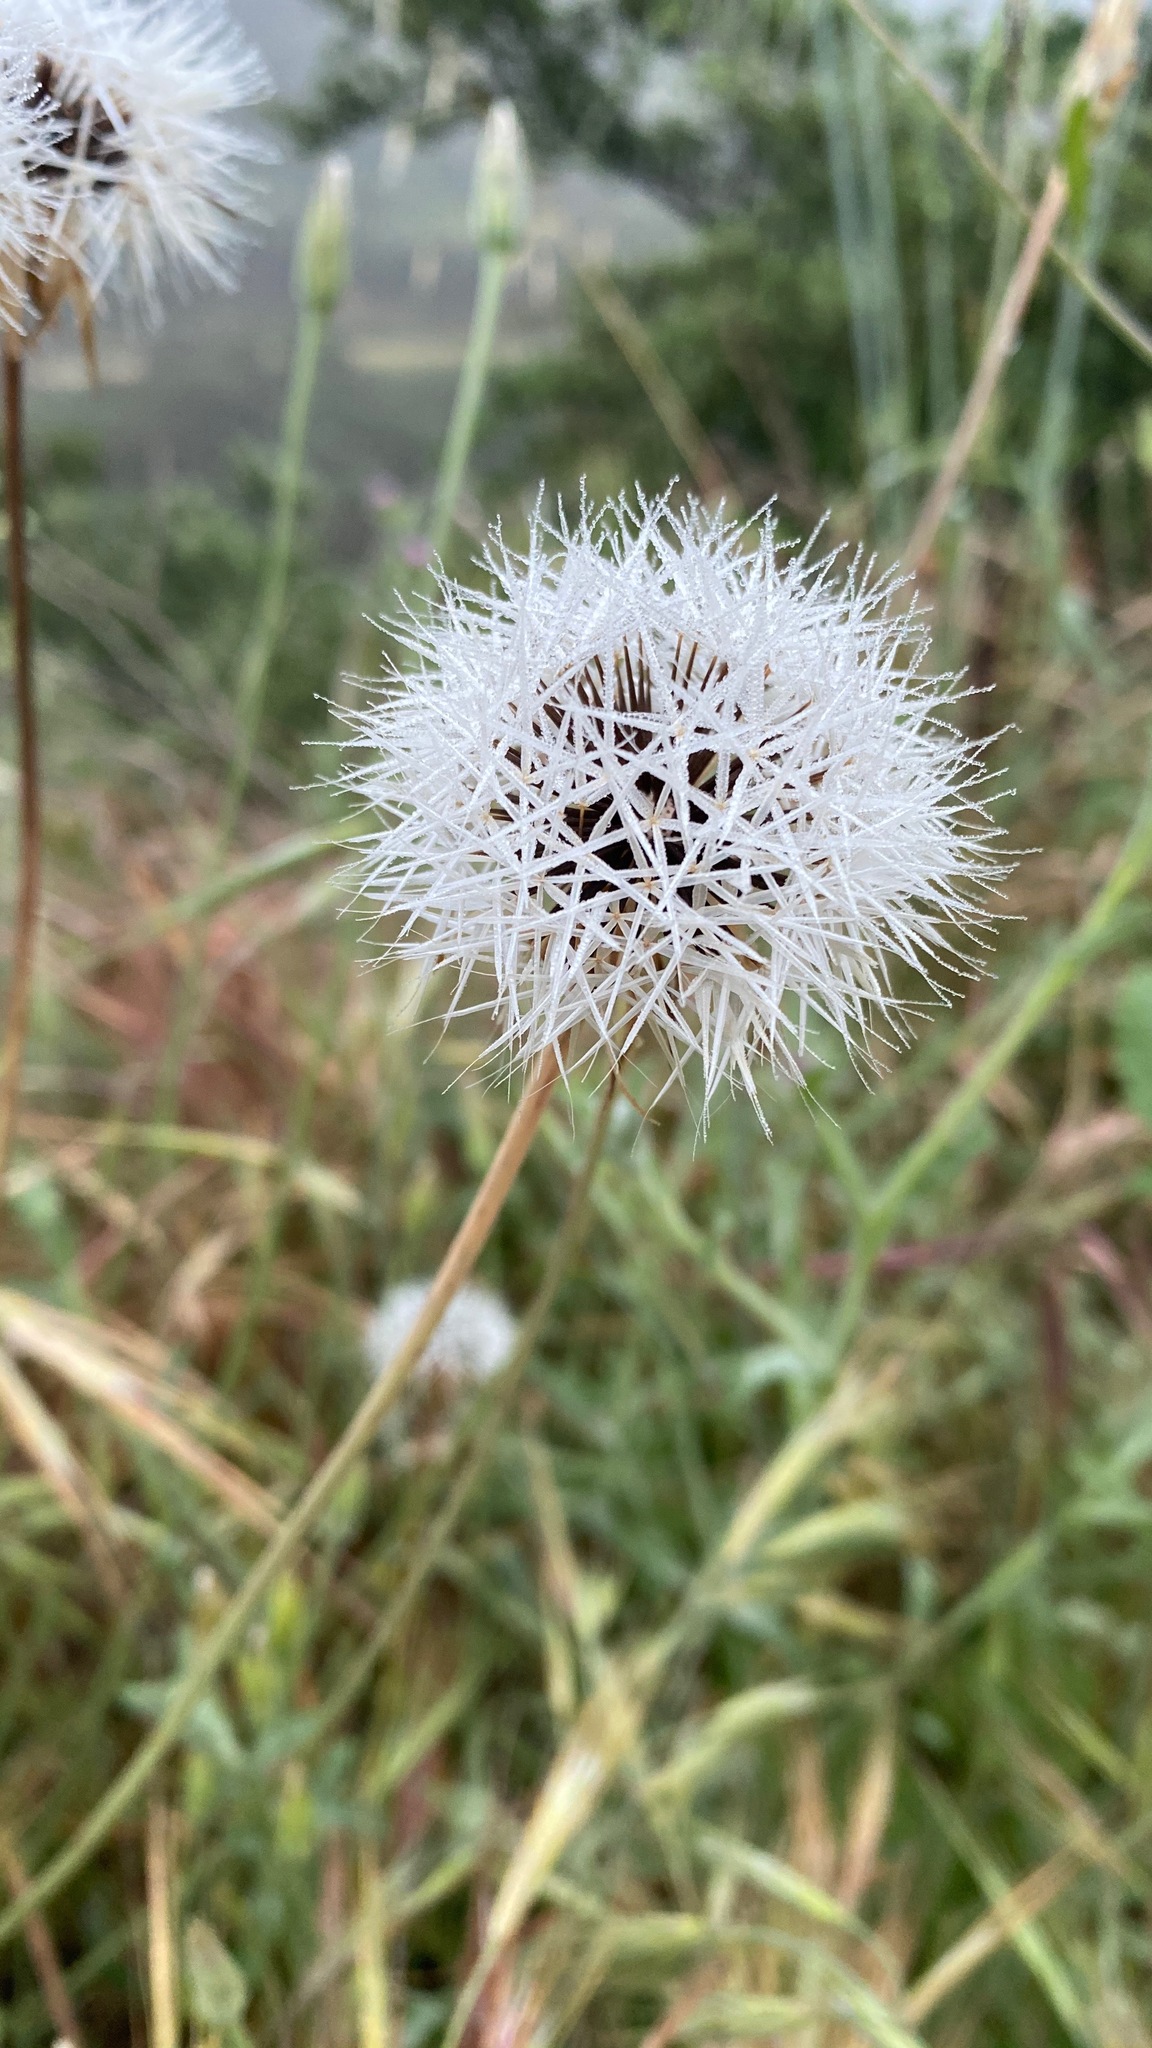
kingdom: Plantae
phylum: Tracheophyta
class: Magnoliopsida
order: Asterales
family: Asteraceae
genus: Microseris
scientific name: Microseris lindleyi
